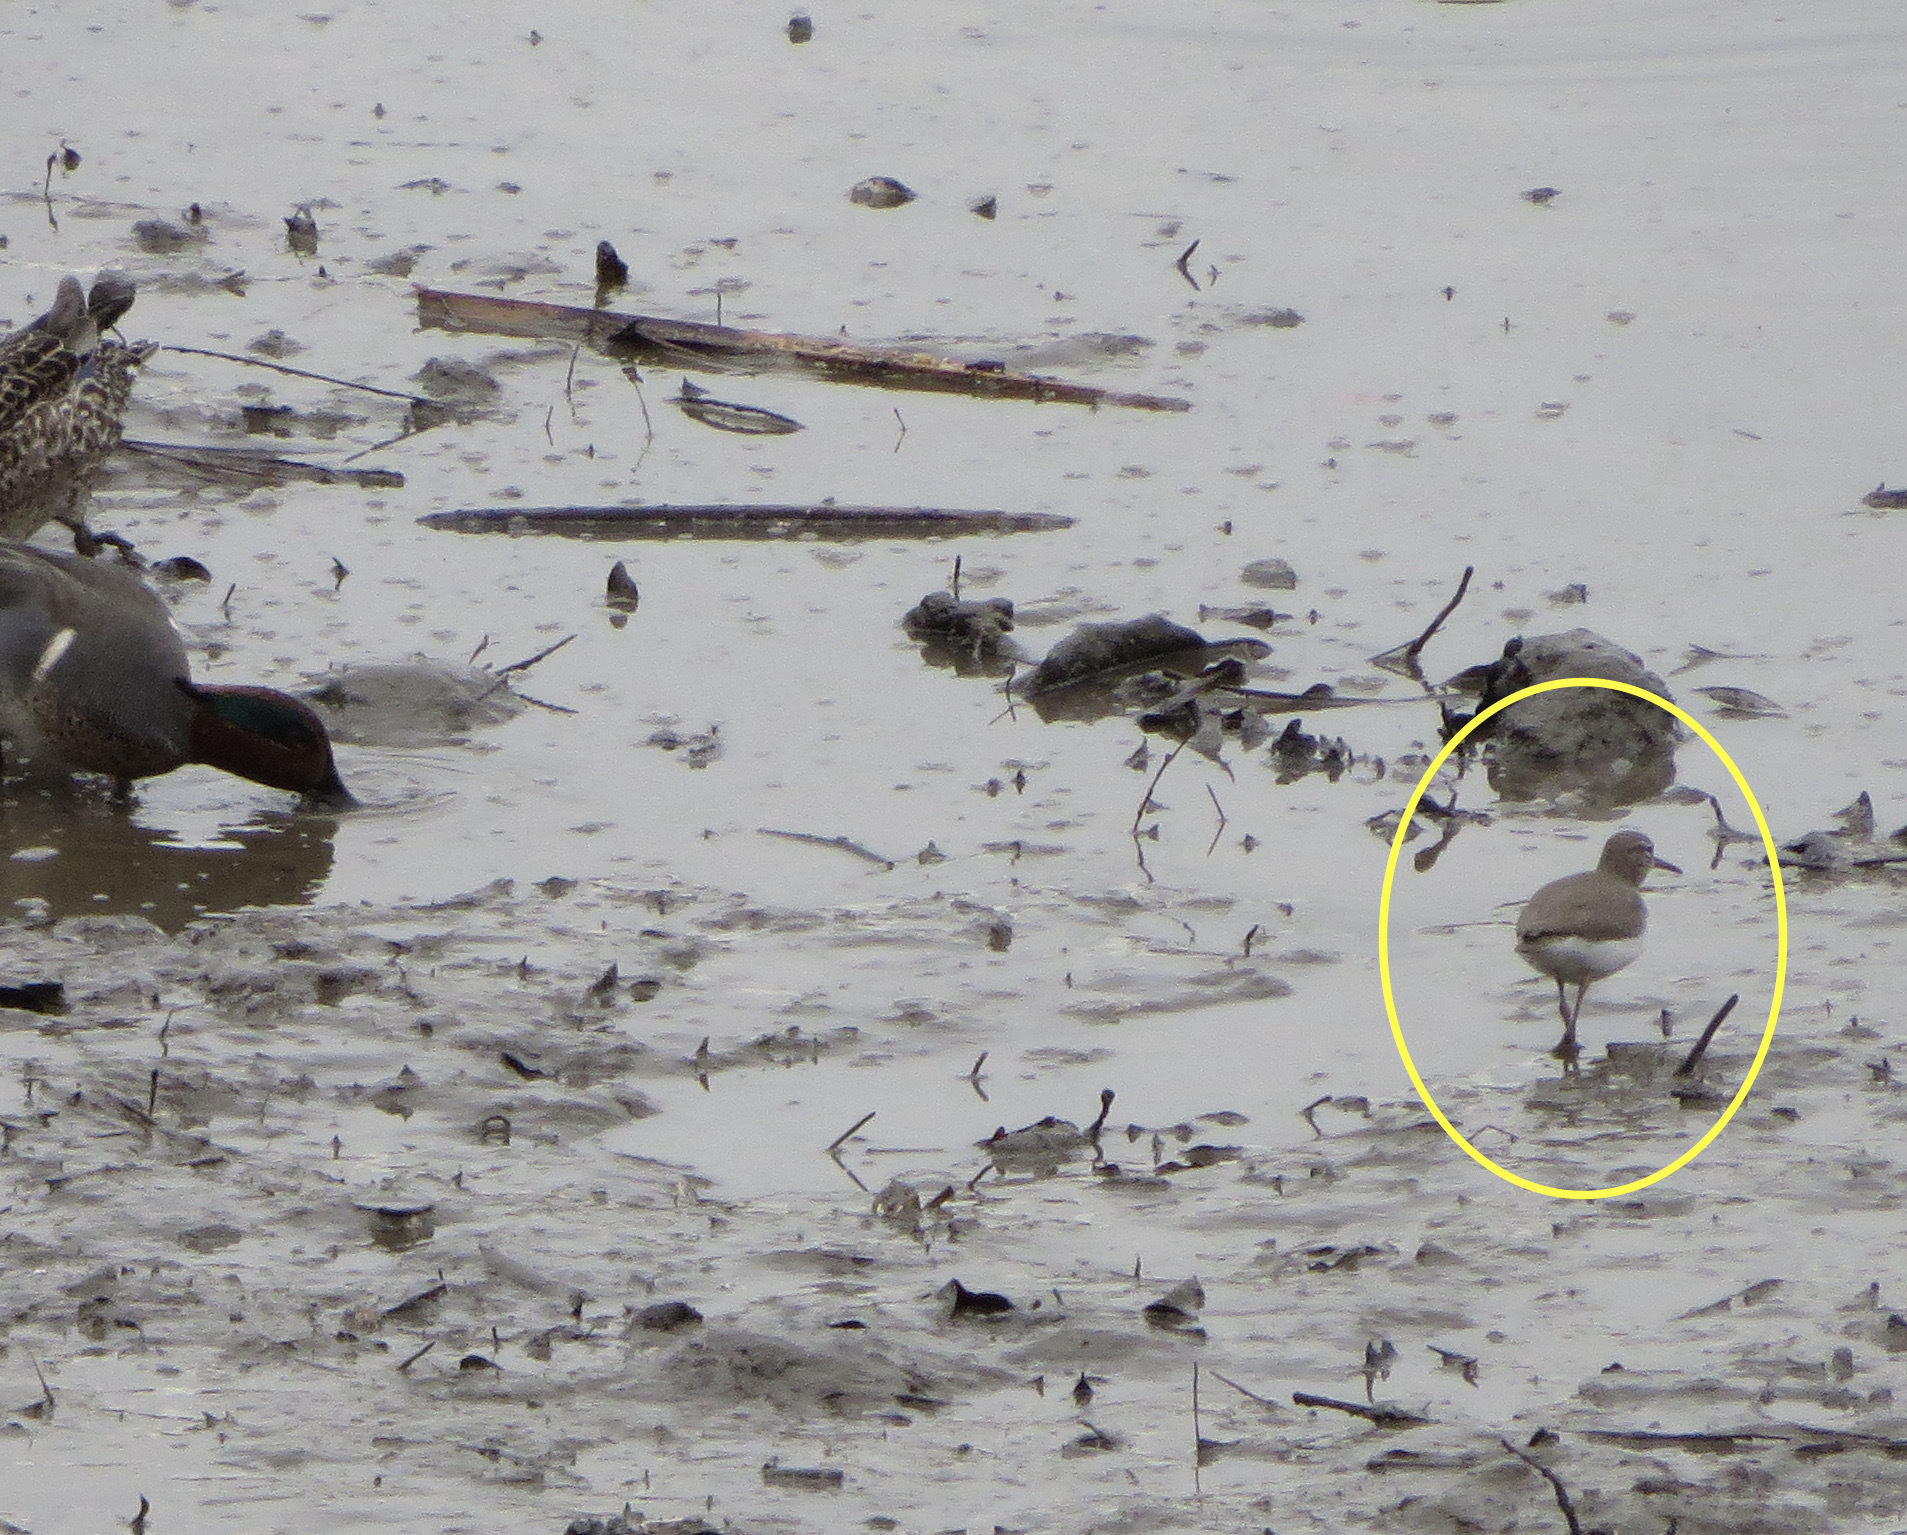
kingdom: Animalia
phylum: Chordata
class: Aves
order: Charadriiformes
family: Scolopacidae
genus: Actitis
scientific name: Actitis macularius
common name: Spotted sandpiper
